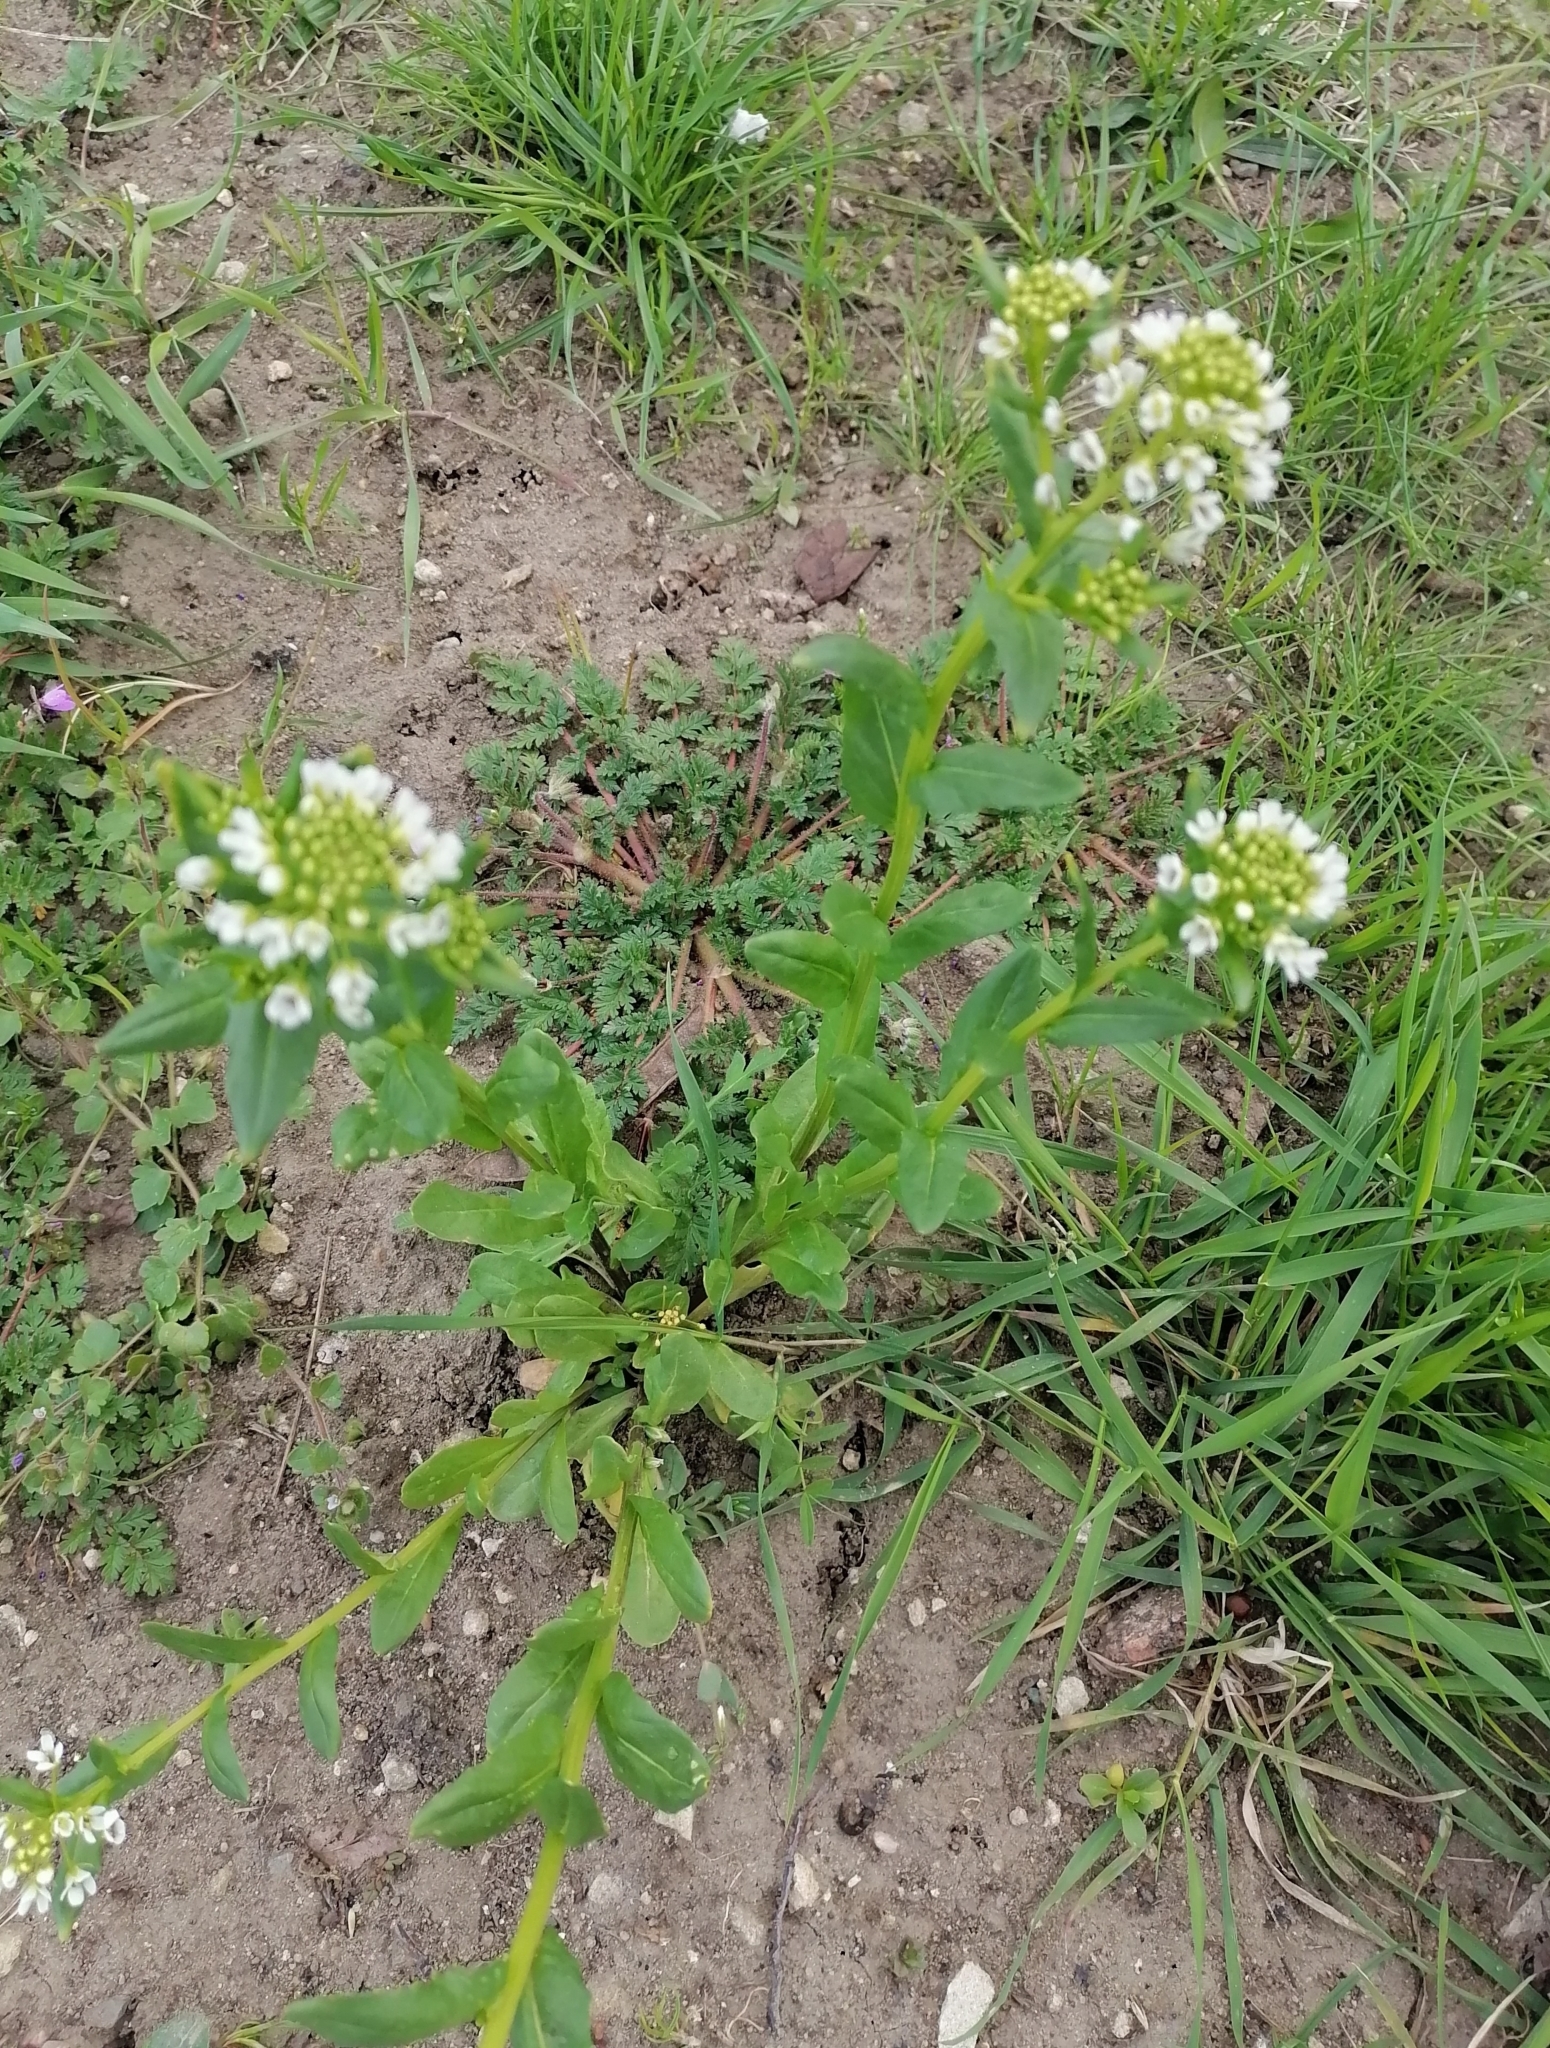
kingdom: Plantae
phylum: Tracheophyta
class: Magnoliopsida
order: Brassicales
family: Brassicaceae
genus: Thlaspi
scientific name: Thlaspi arvense
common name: Field pennycress
